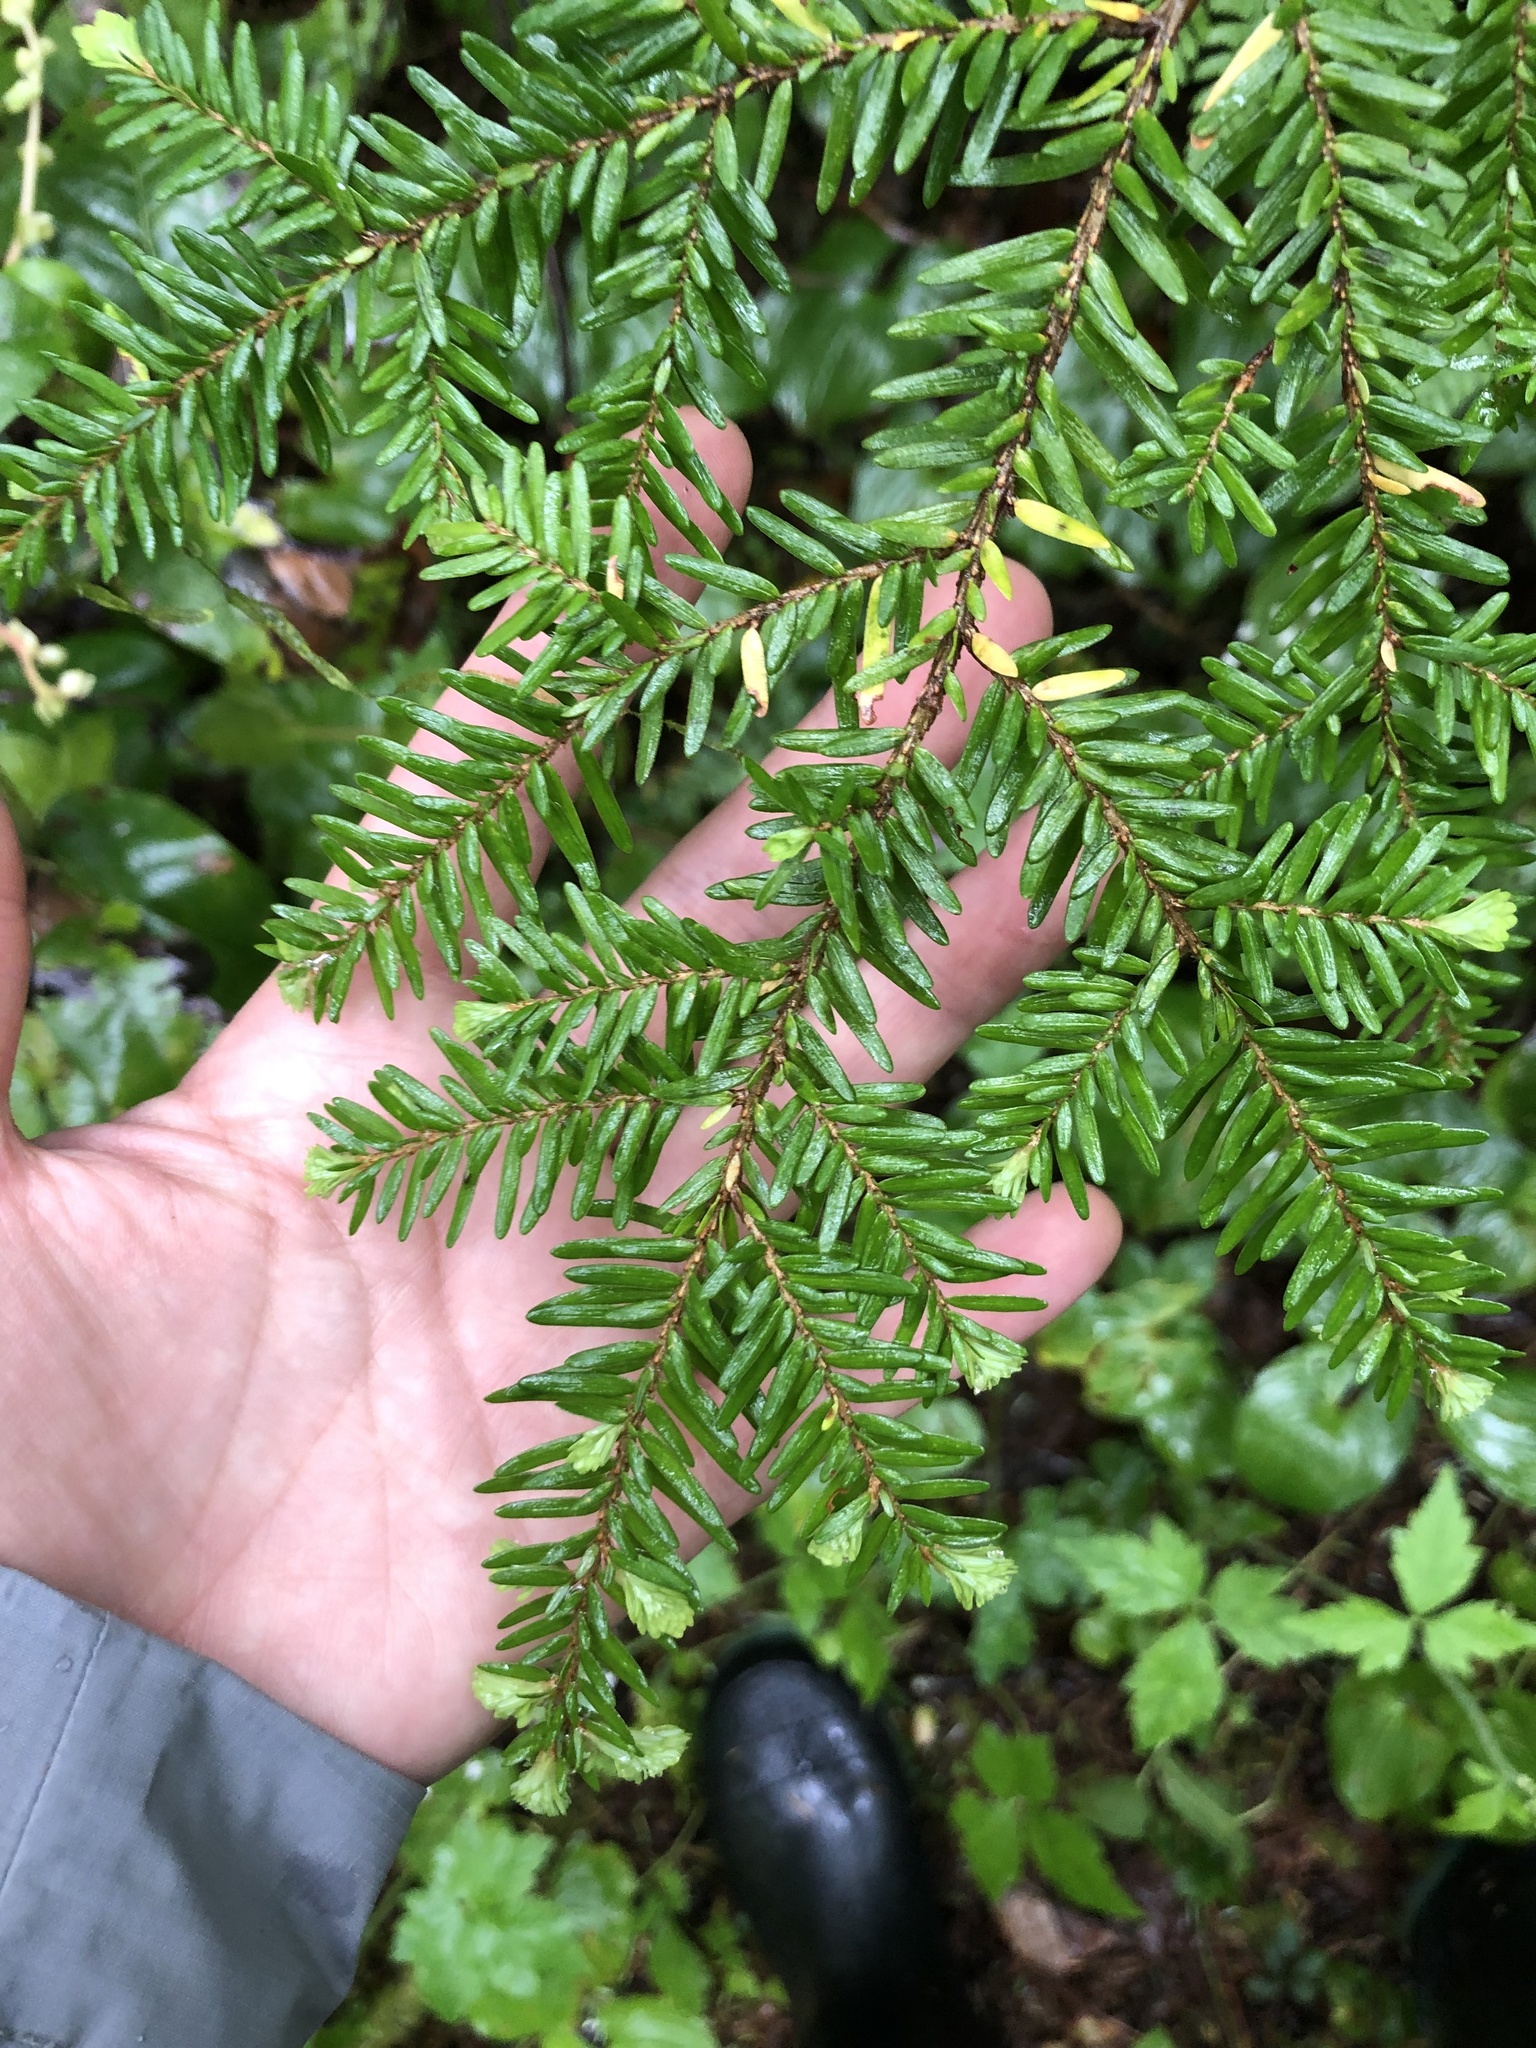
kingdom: Plantae
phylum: Tracheophyta
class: Pinopsida
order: Pinales
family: Pinaceae
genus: Tsuga
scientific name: Tsuga heterophylla
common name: Western hemlock
